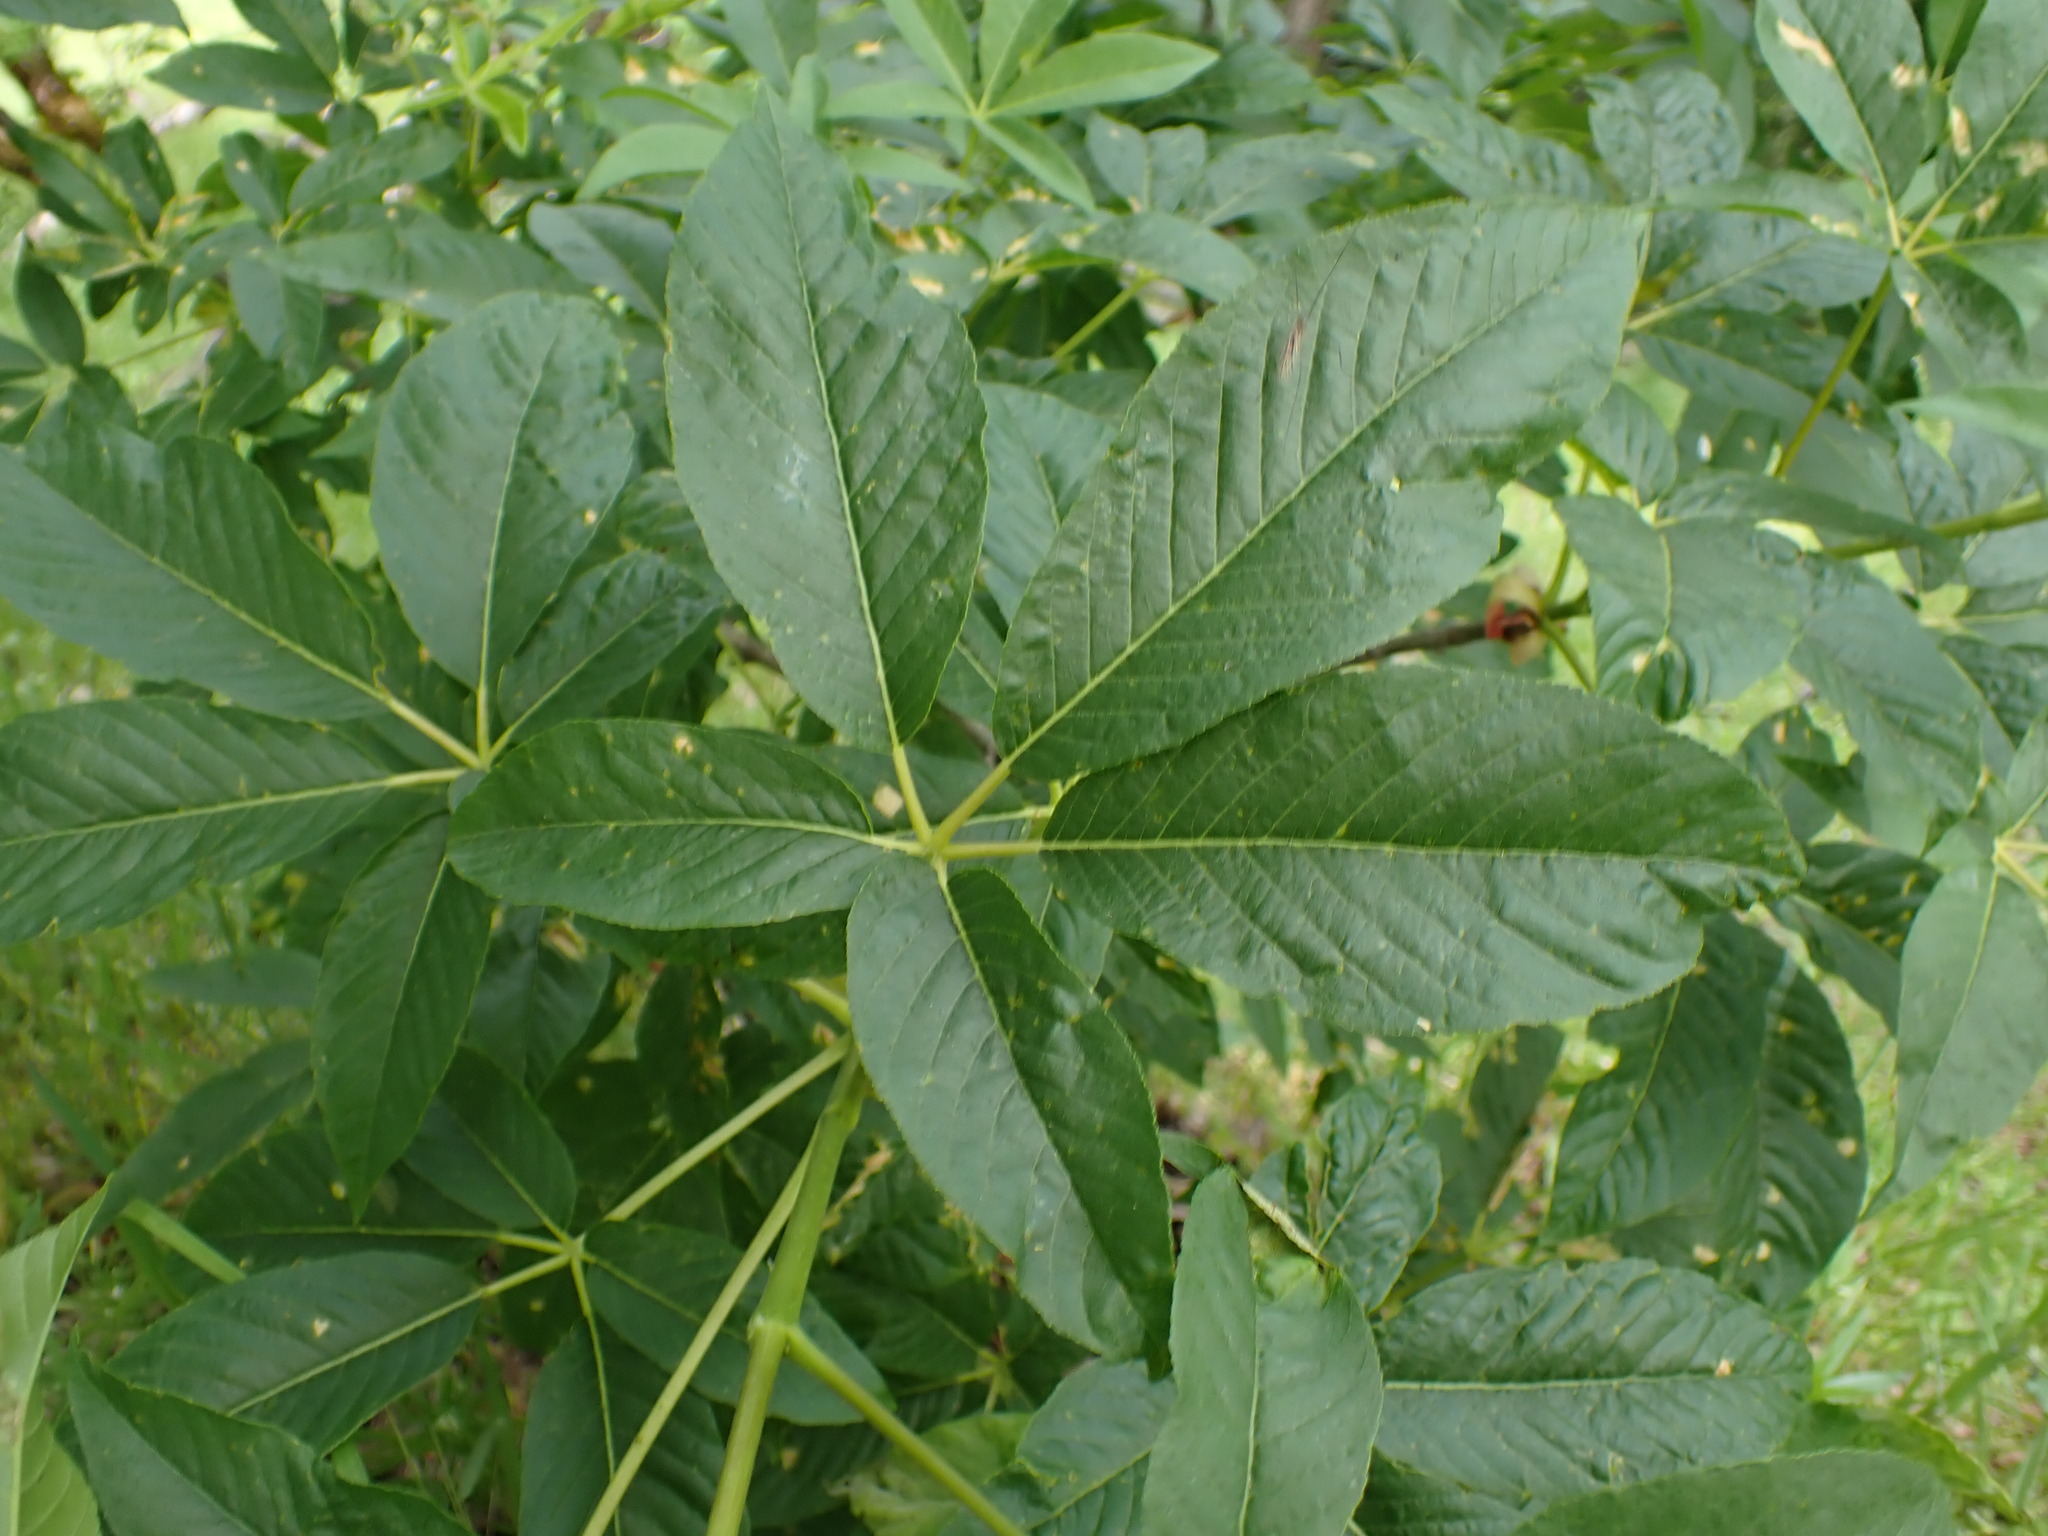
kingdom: Plantae
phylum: Tracheophyta
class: Magnoliopsida
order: Sapindales
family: Sapindaceae
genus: Aesculus
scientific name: Aesculus californica
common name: California buckeye
